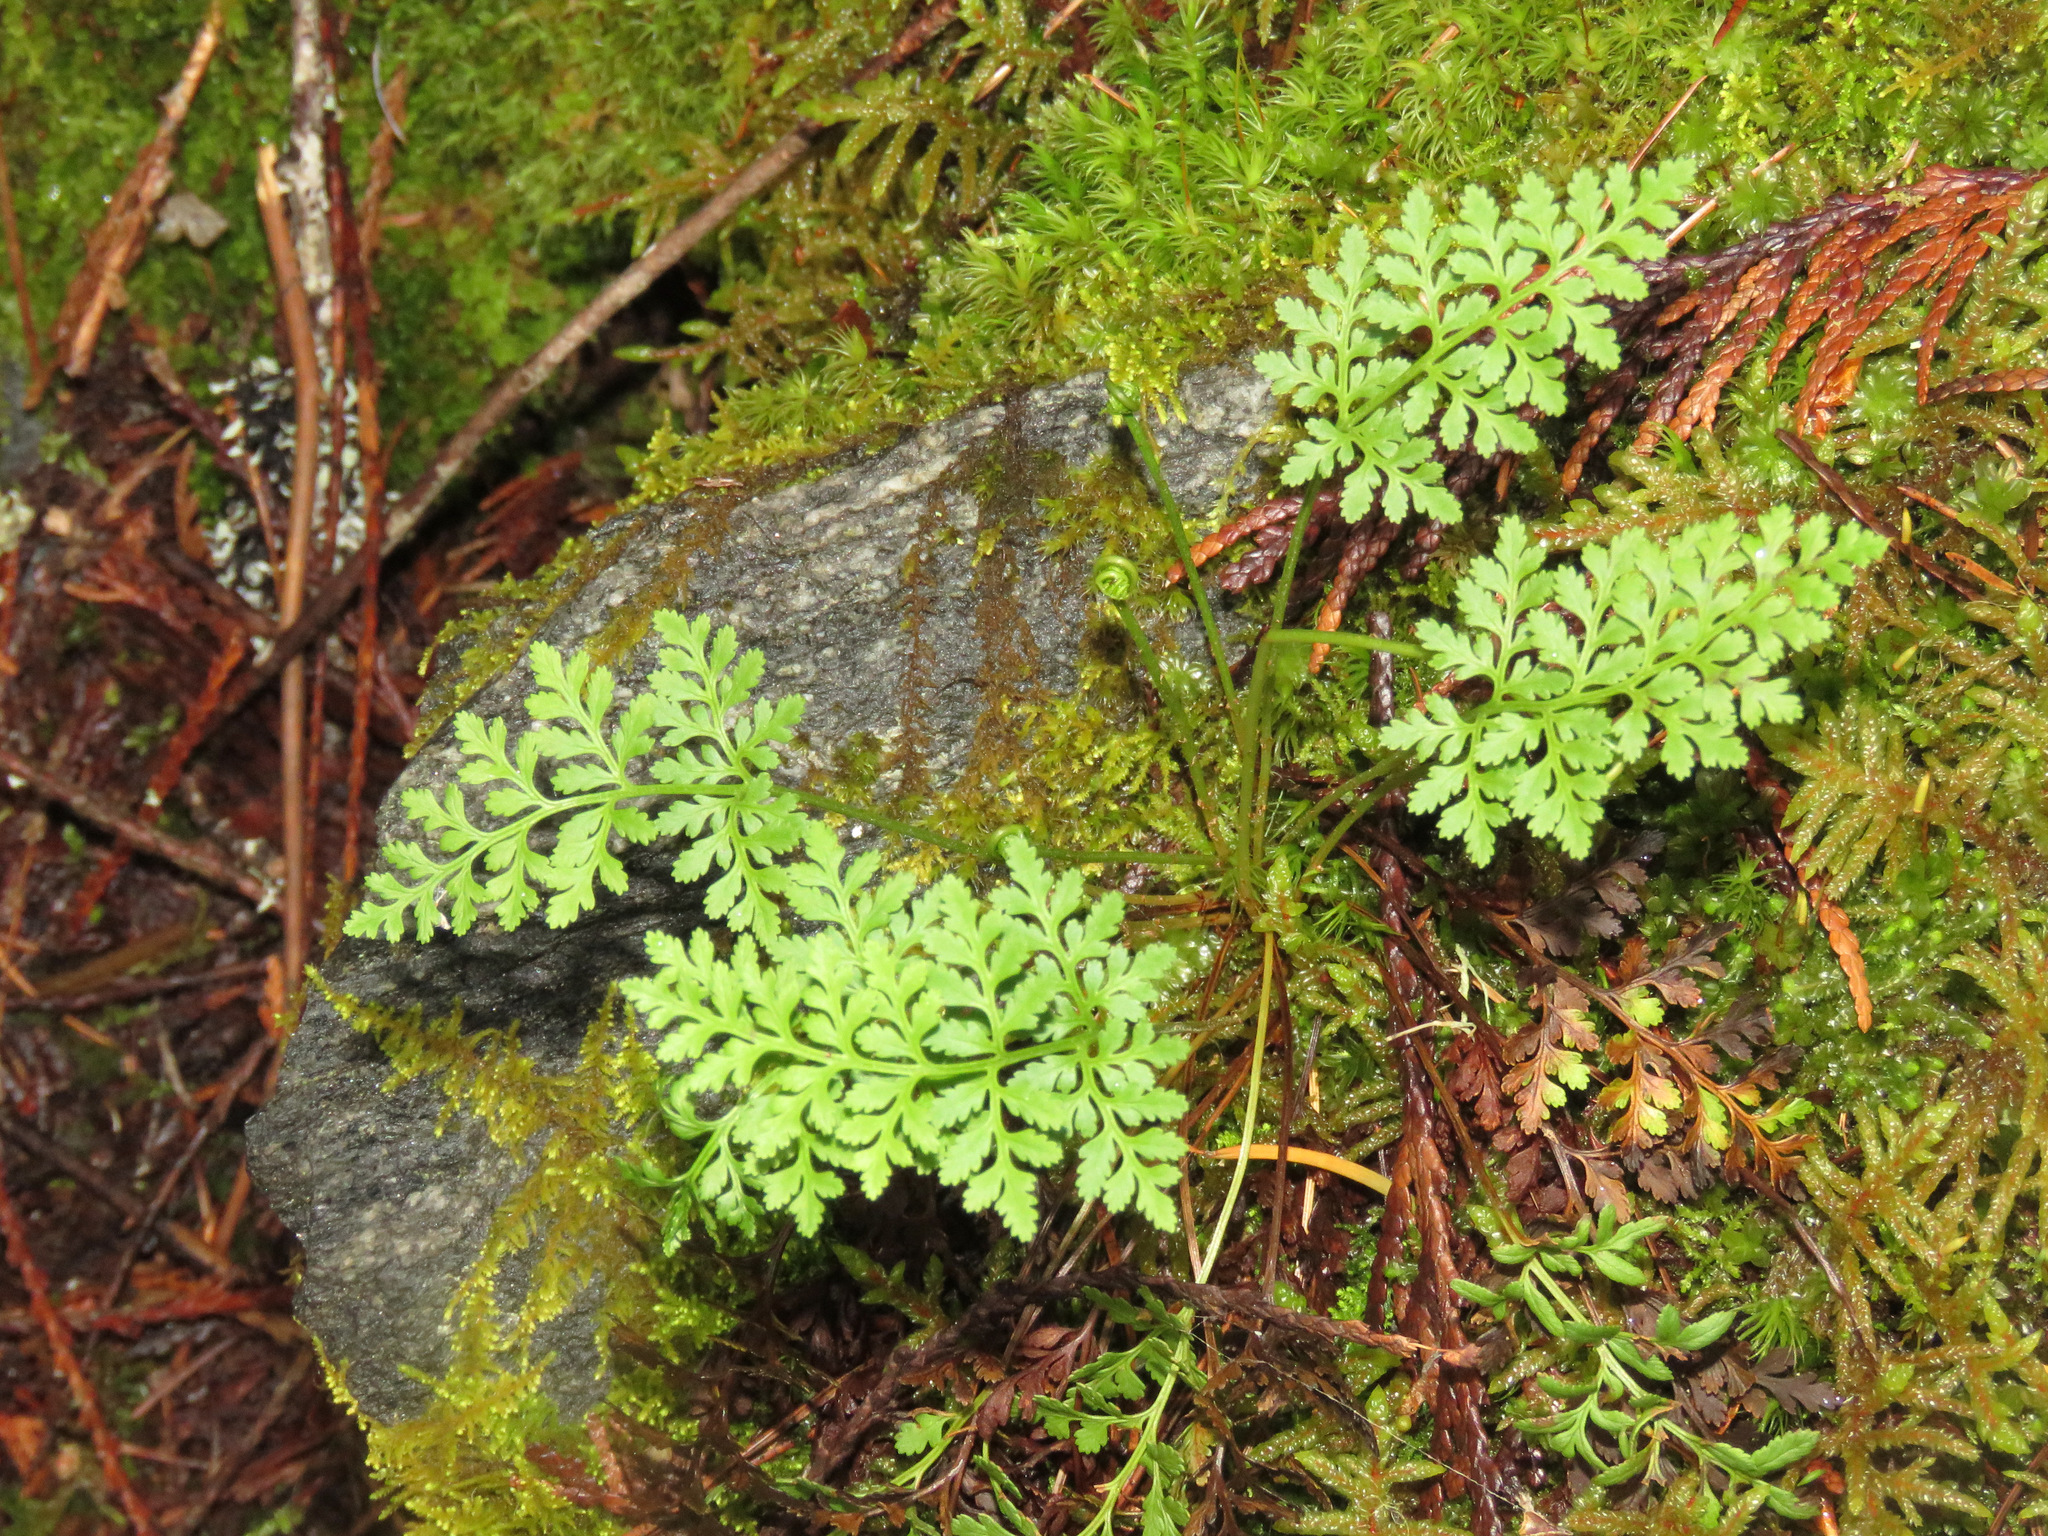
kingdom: Plantae
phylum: Tracheophyta
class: Polypodiopsida
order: Polypodiales
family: Pteridaceae
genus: Cryptogramma
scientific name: Cryptogramma acrostichoides
